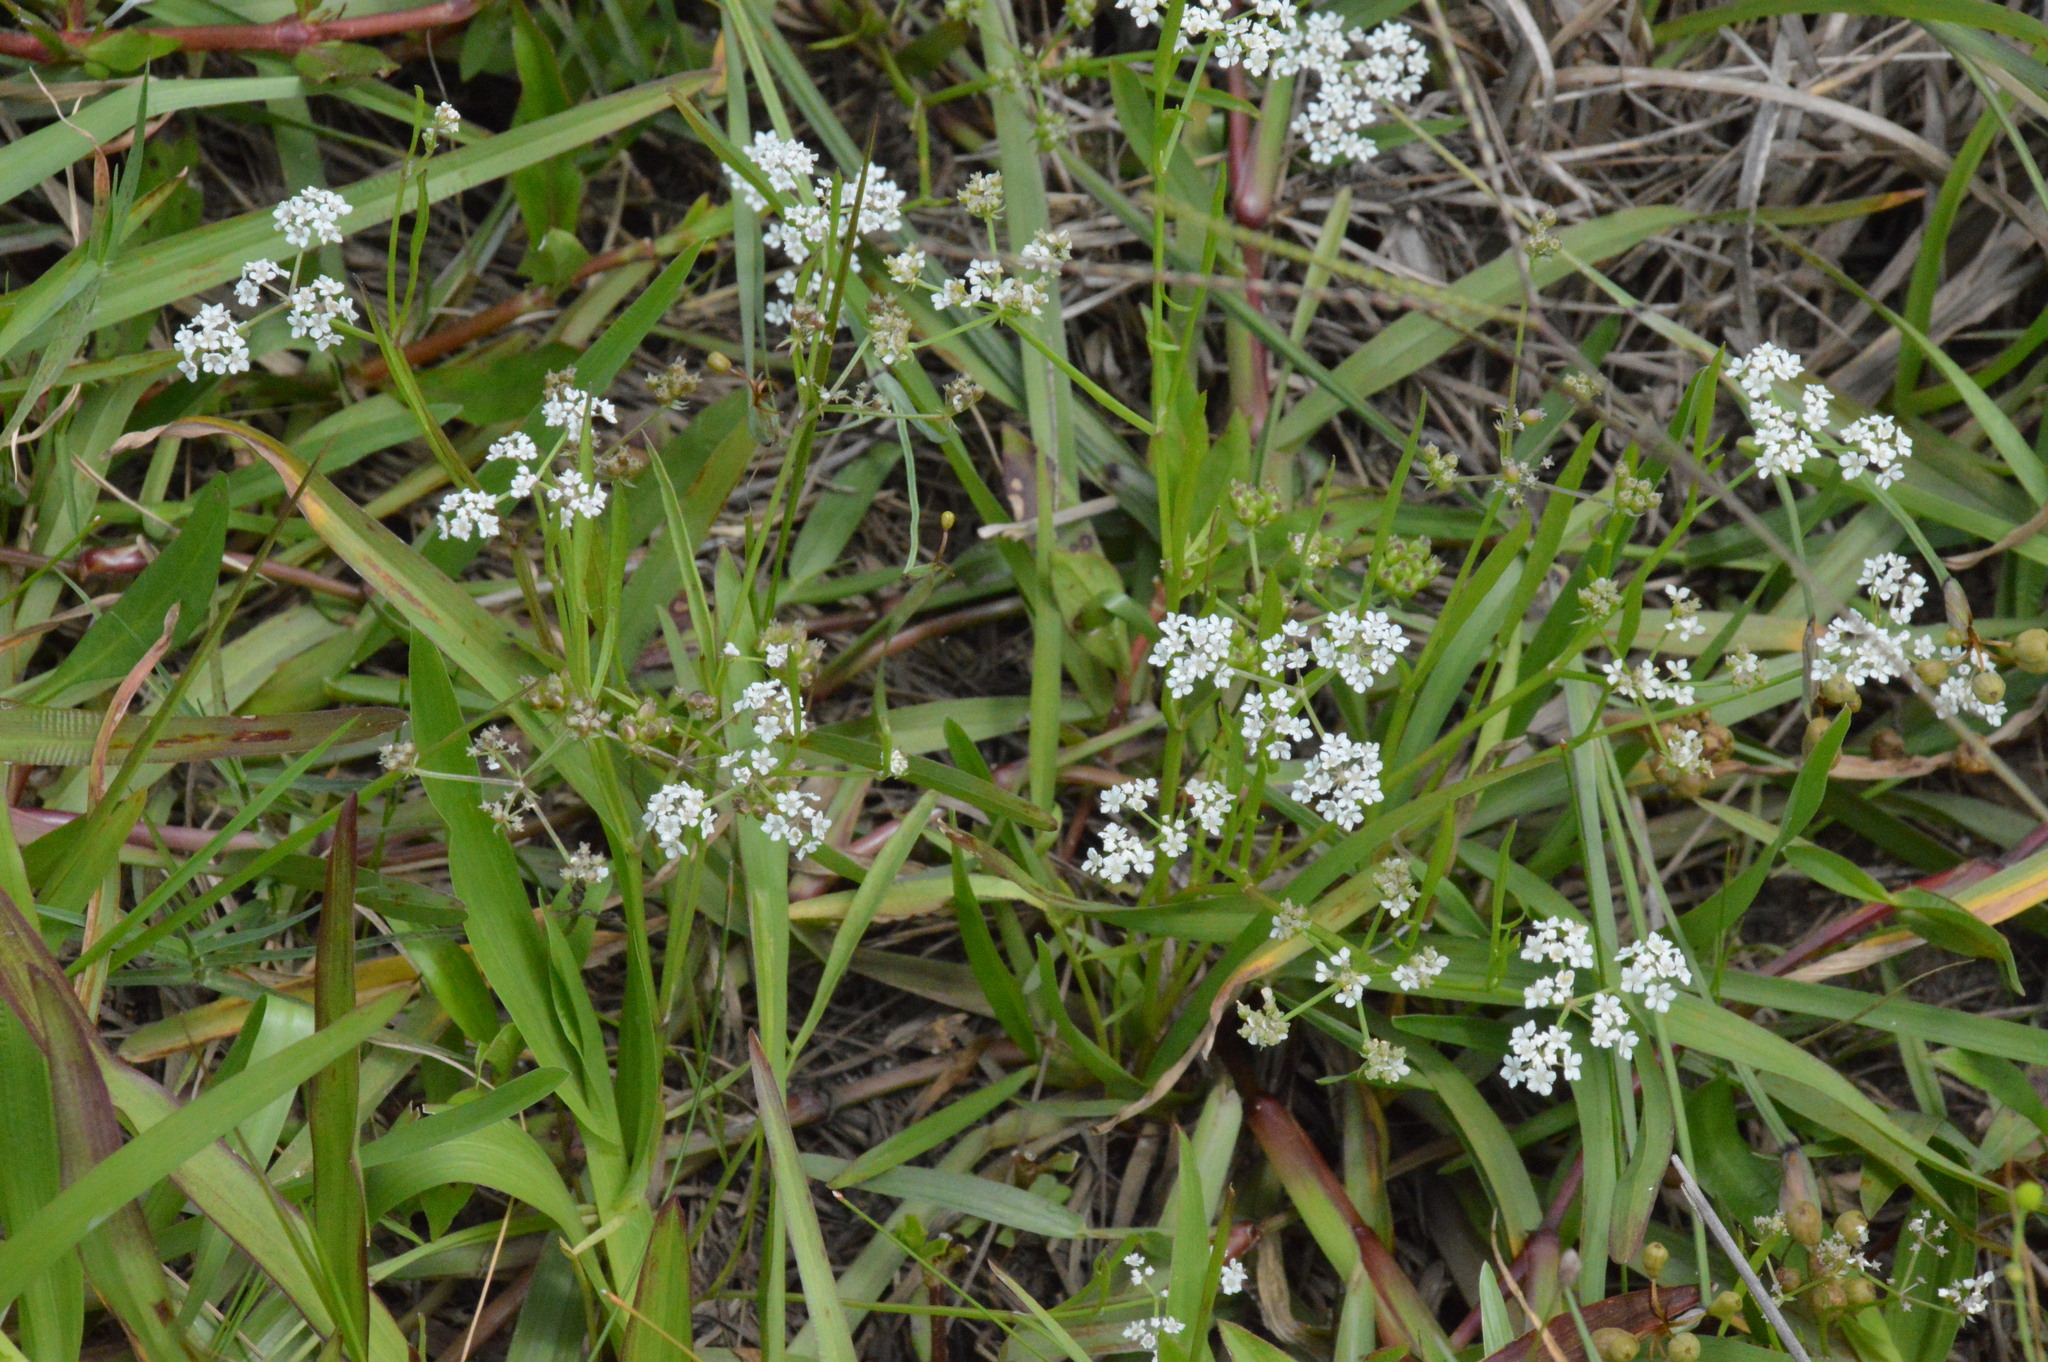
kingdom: Plantae
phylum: Tracheophyta
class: Magnoliopsida
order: Apiales
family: Apiaceae
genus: Limnosciadium
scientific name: Limnosciadium pinnatum
